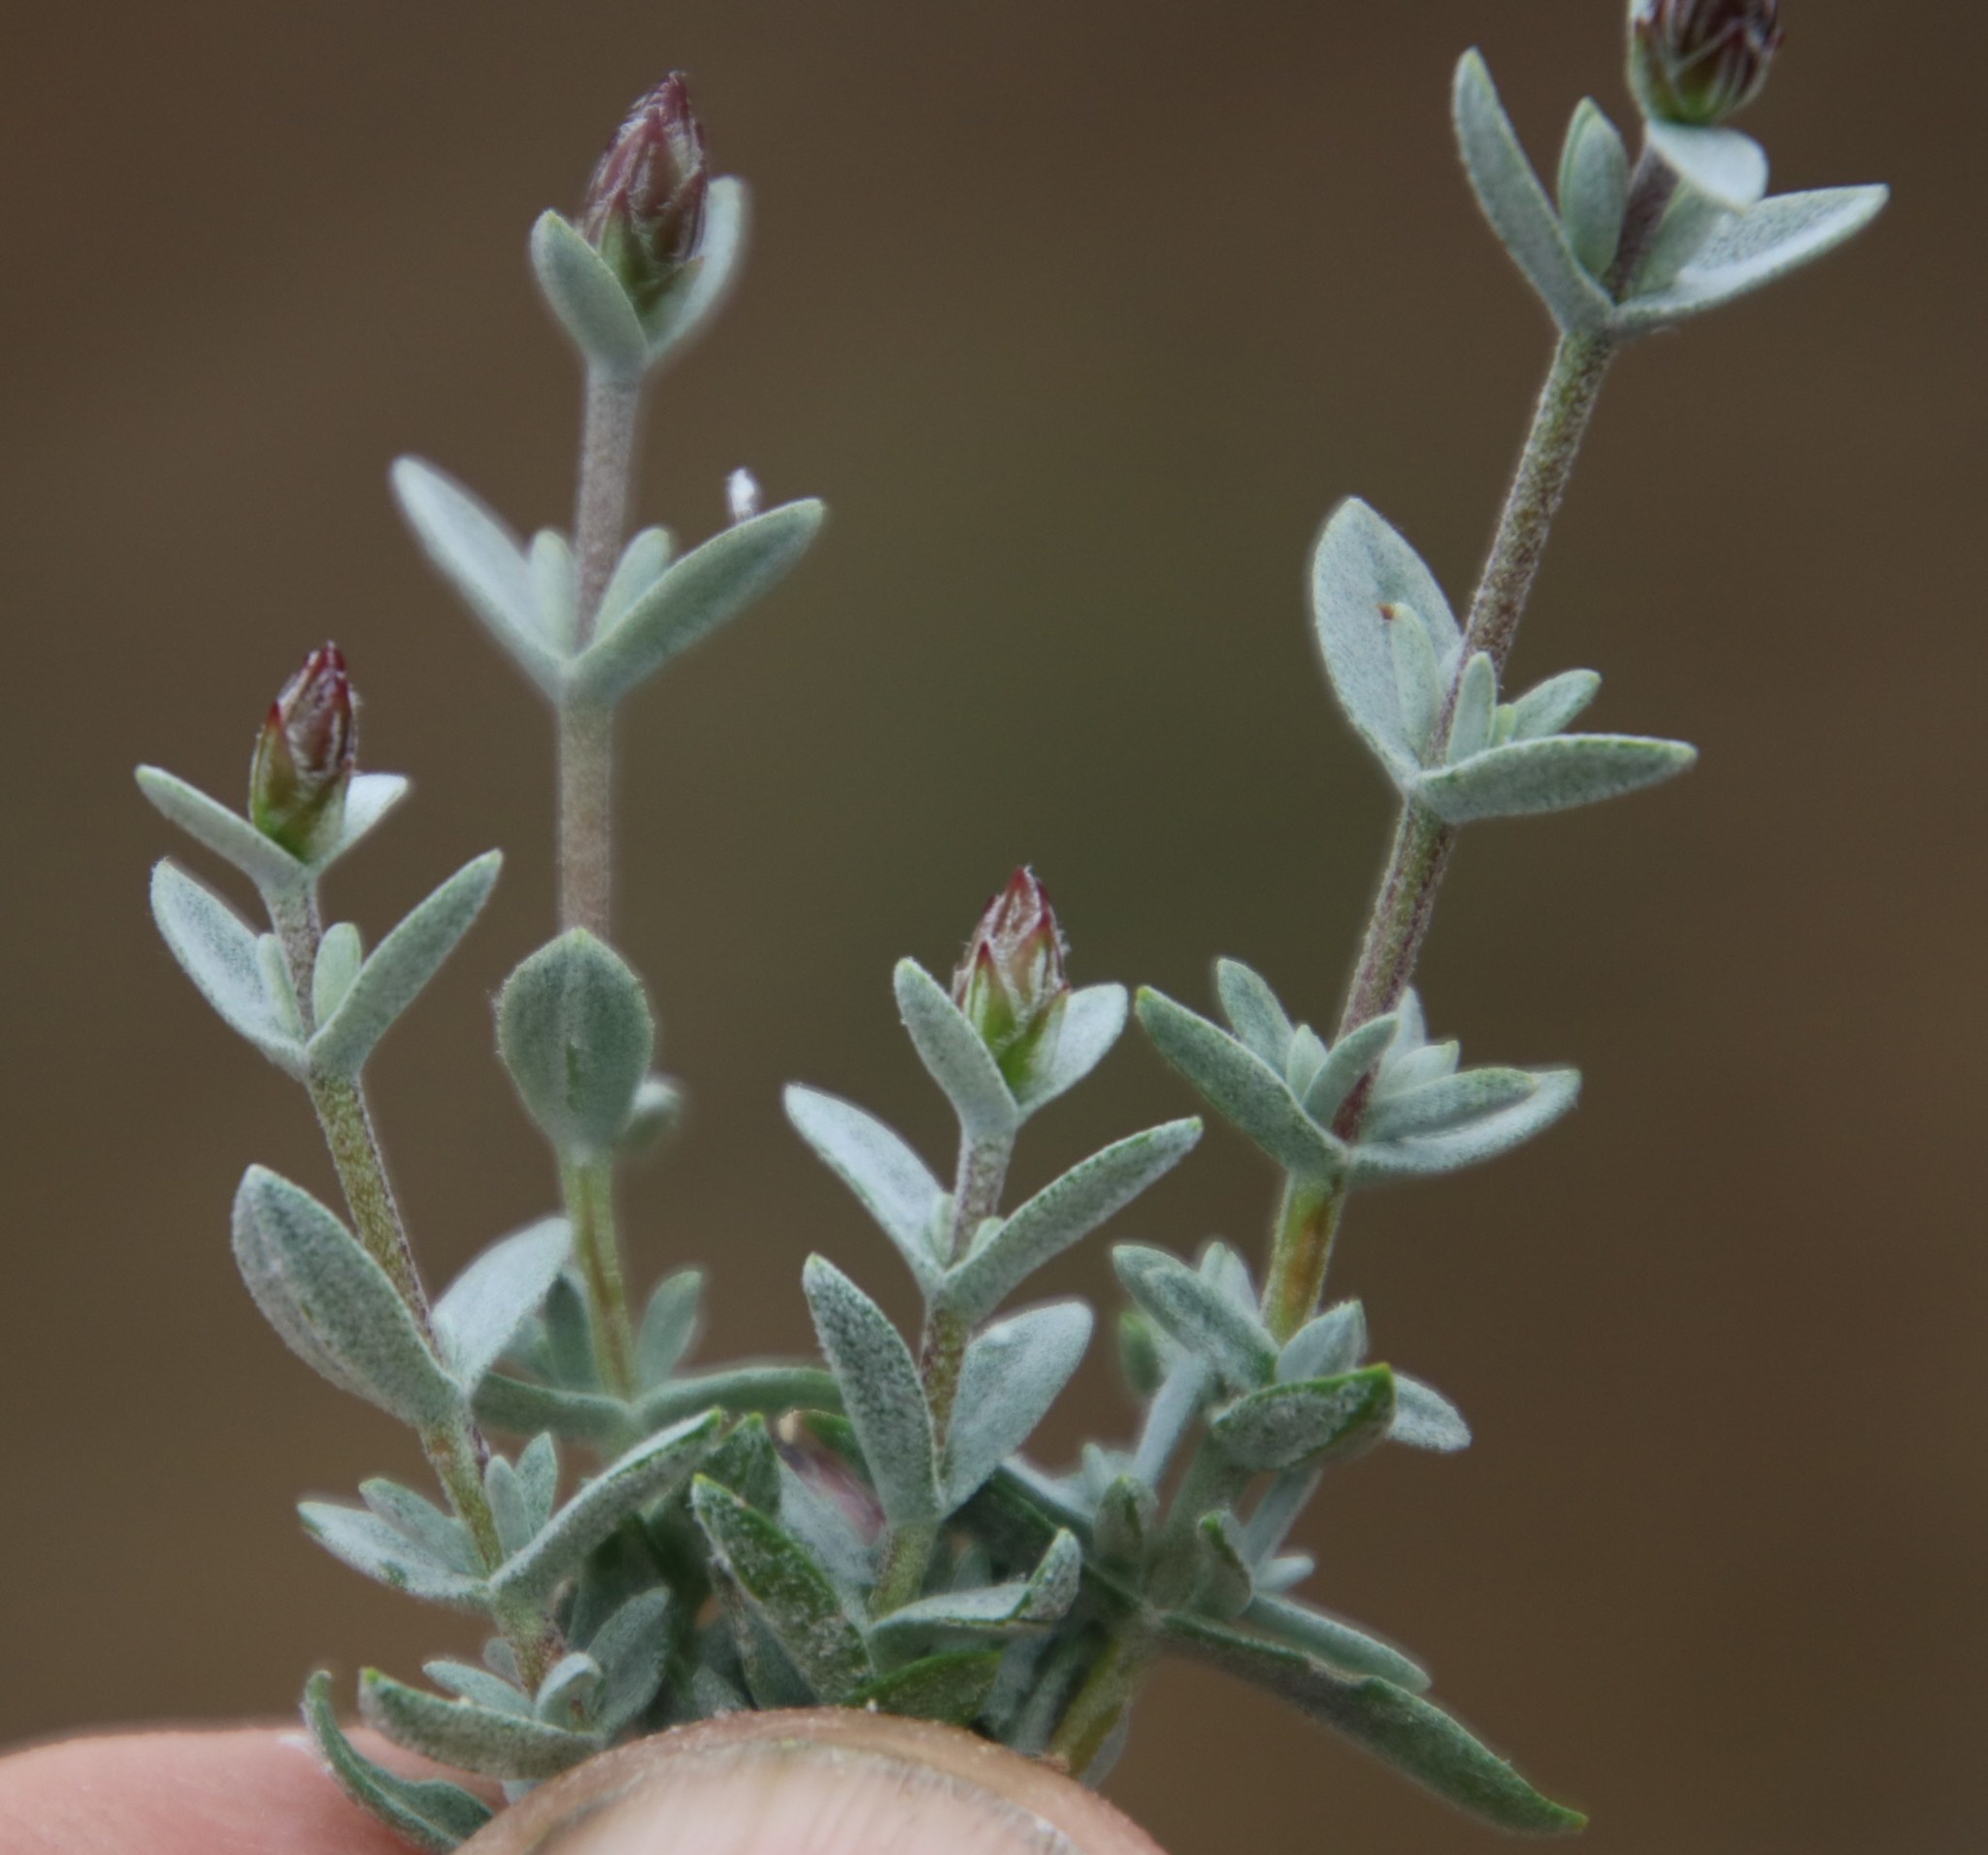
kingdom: Plantae
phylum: Tracheophyta
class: Magnoliopsida
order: Asterales
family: Asteraceae
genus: Pteronia
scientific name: Pteronia glauca
